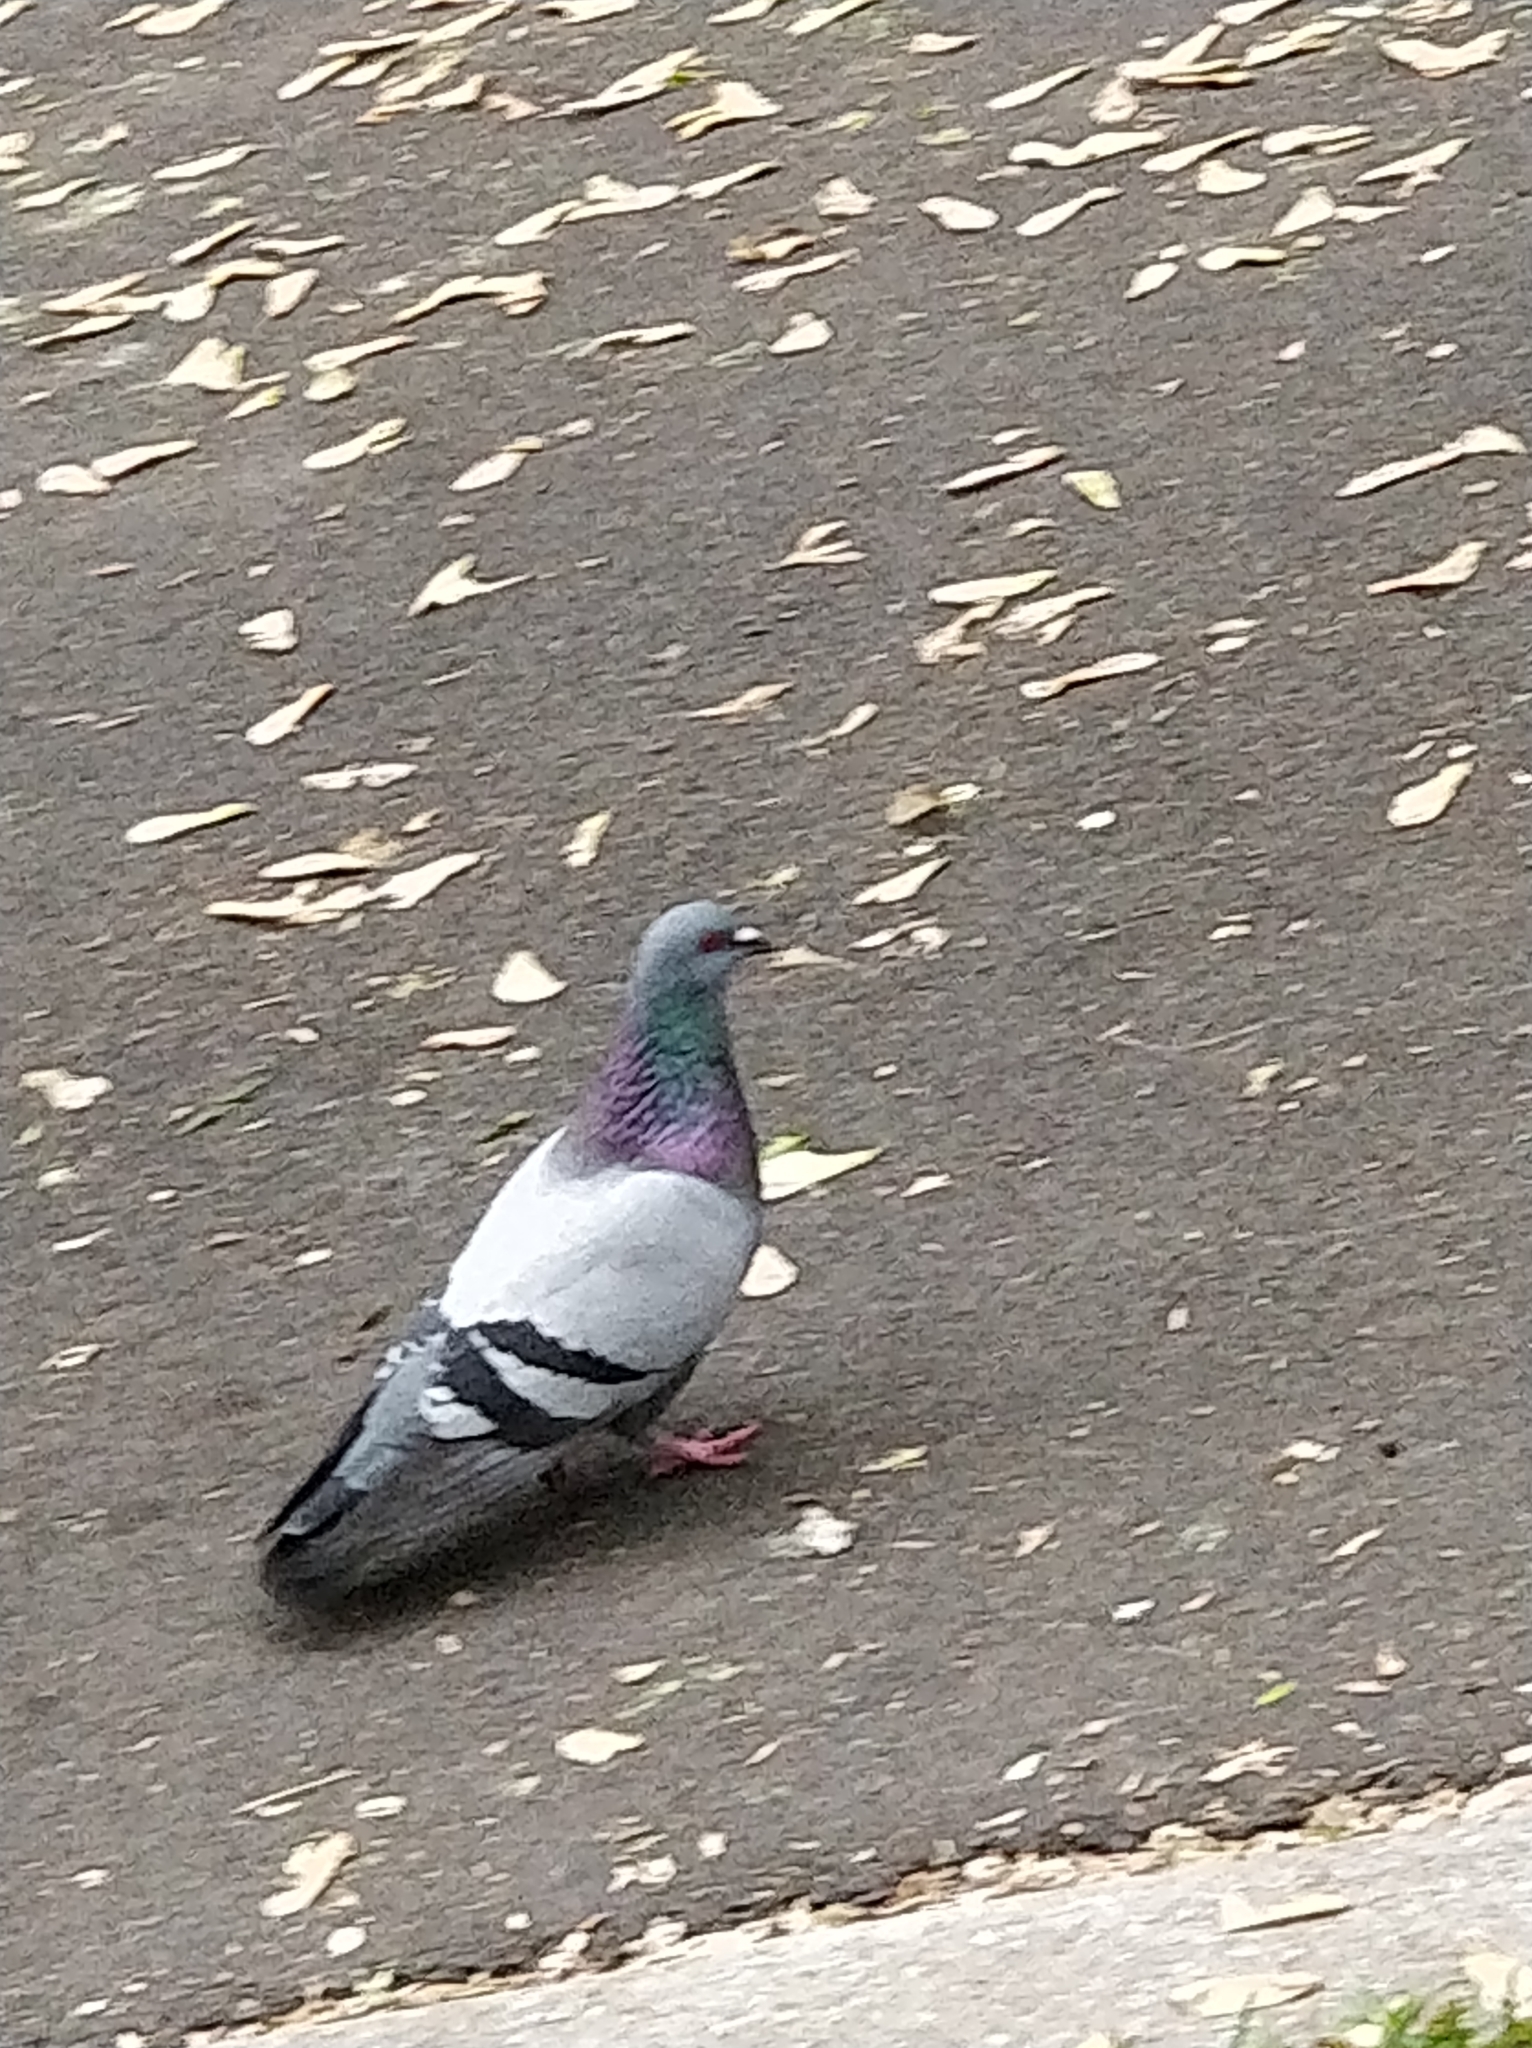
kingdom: Animalia
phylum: Chordata
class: Aves
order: Columbiformes
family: Columbidae
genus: Columba
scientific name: Columba livia
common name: Rock pigeon
